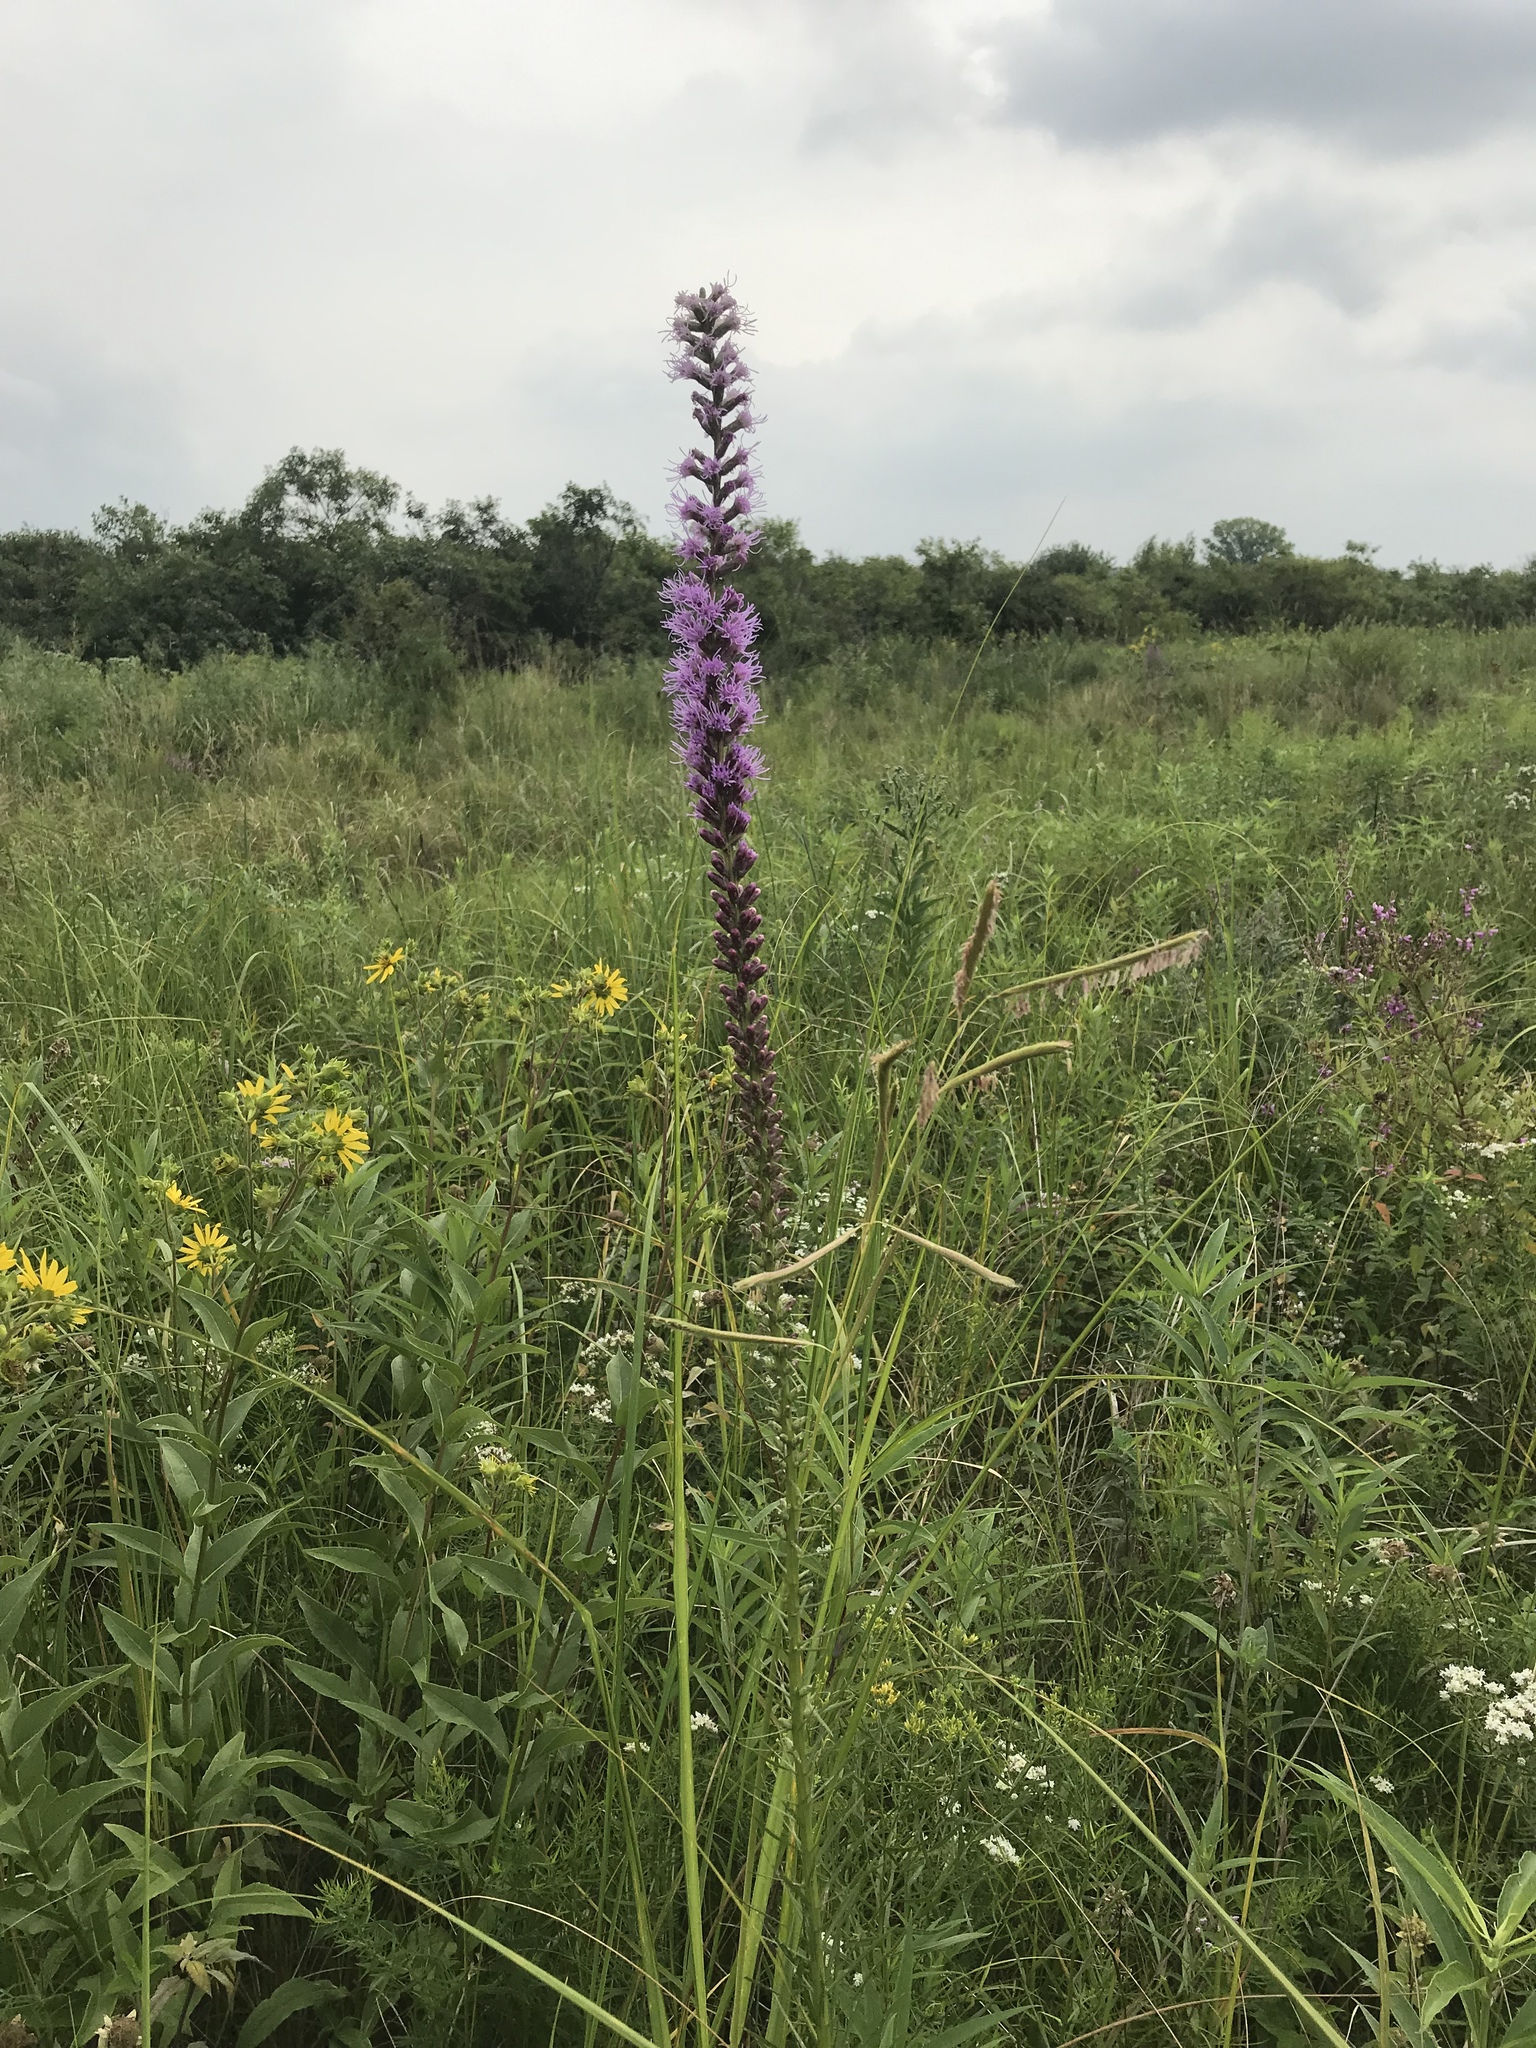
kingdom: Plantae
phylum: Tracheophyta
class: Magnoliopsida
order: Asterales
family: Asteraceae
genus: Liatris
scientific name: Liatris spicata
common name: Florist gayfeather
